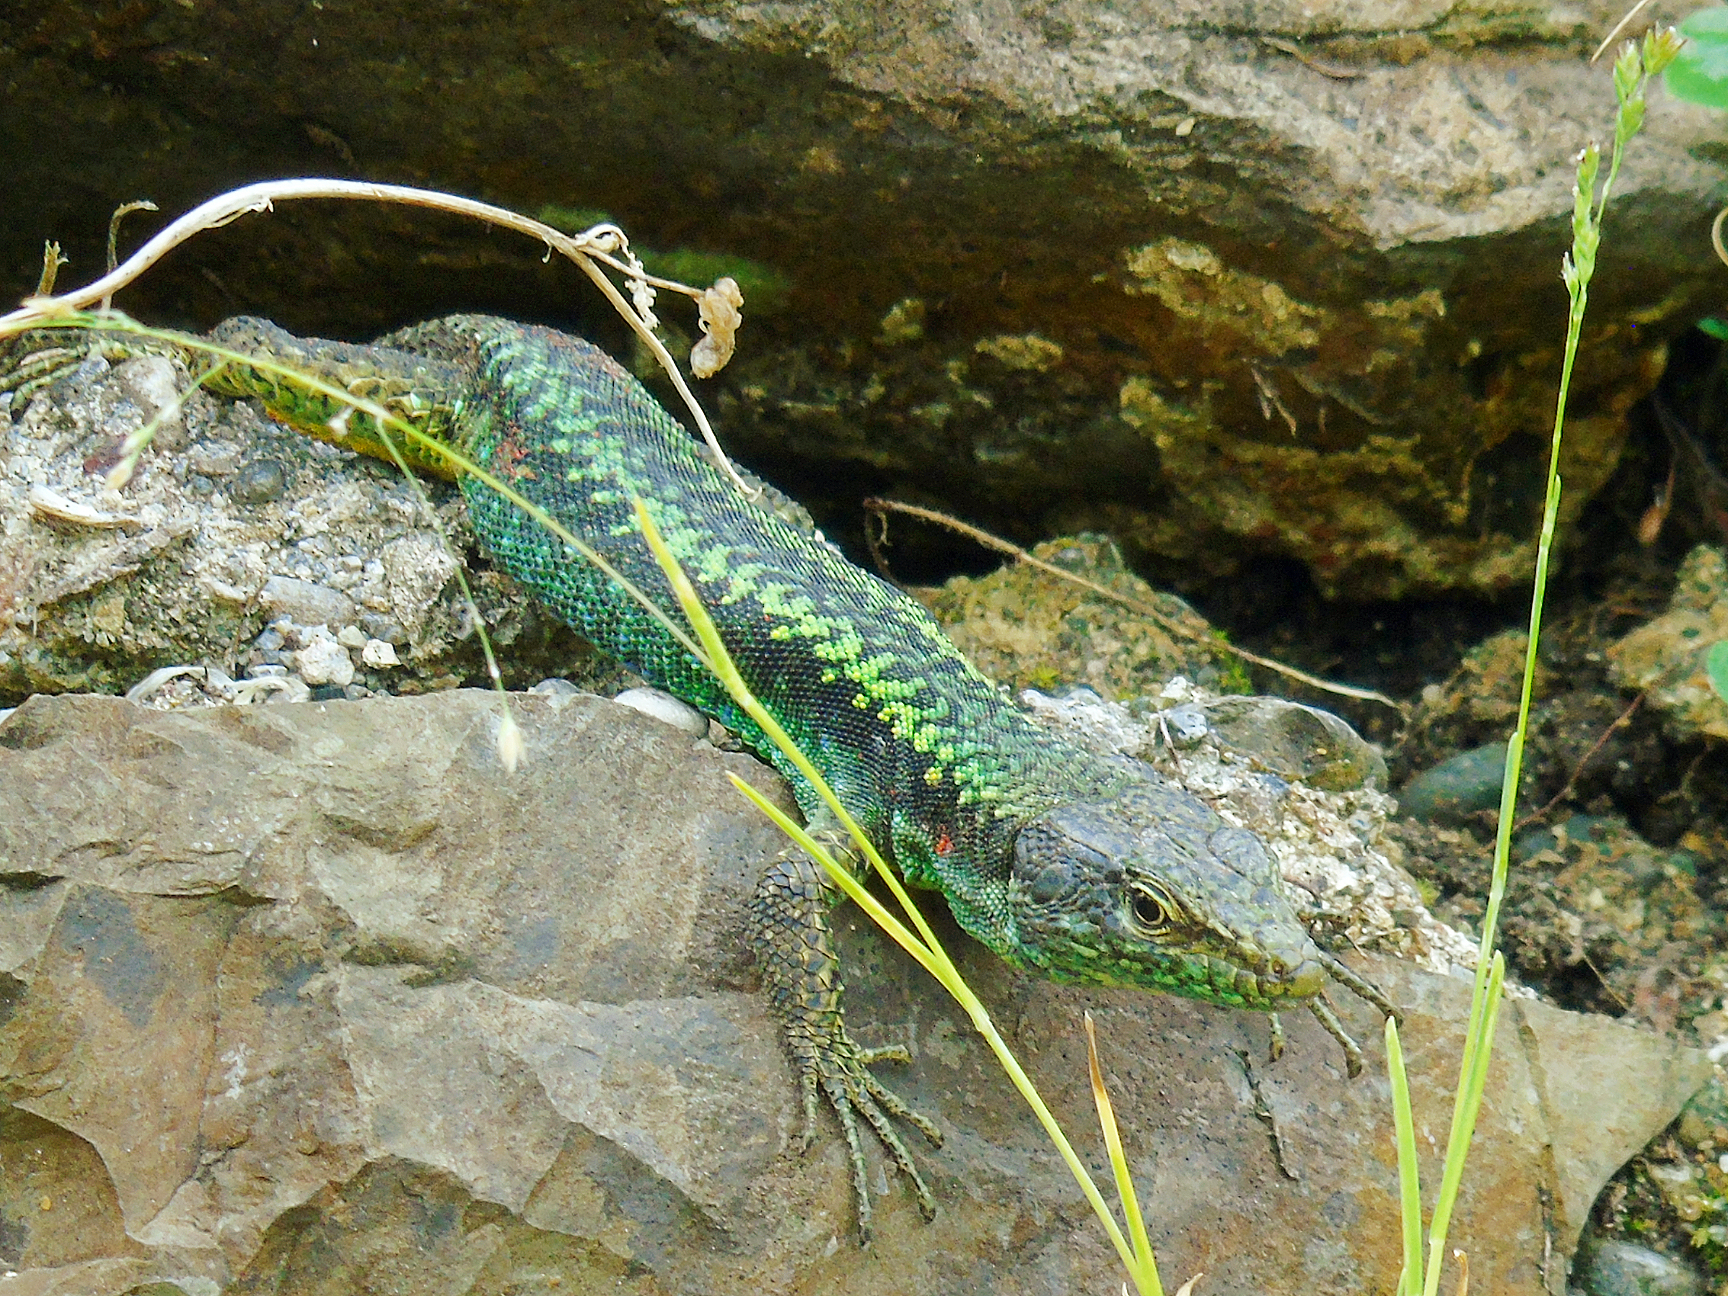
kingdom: Animalia
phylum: Chordata
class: Squamata
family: Lacertidae
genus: Darevskia
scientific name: Darevskia rudis
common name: Spiny-tailed lizard
